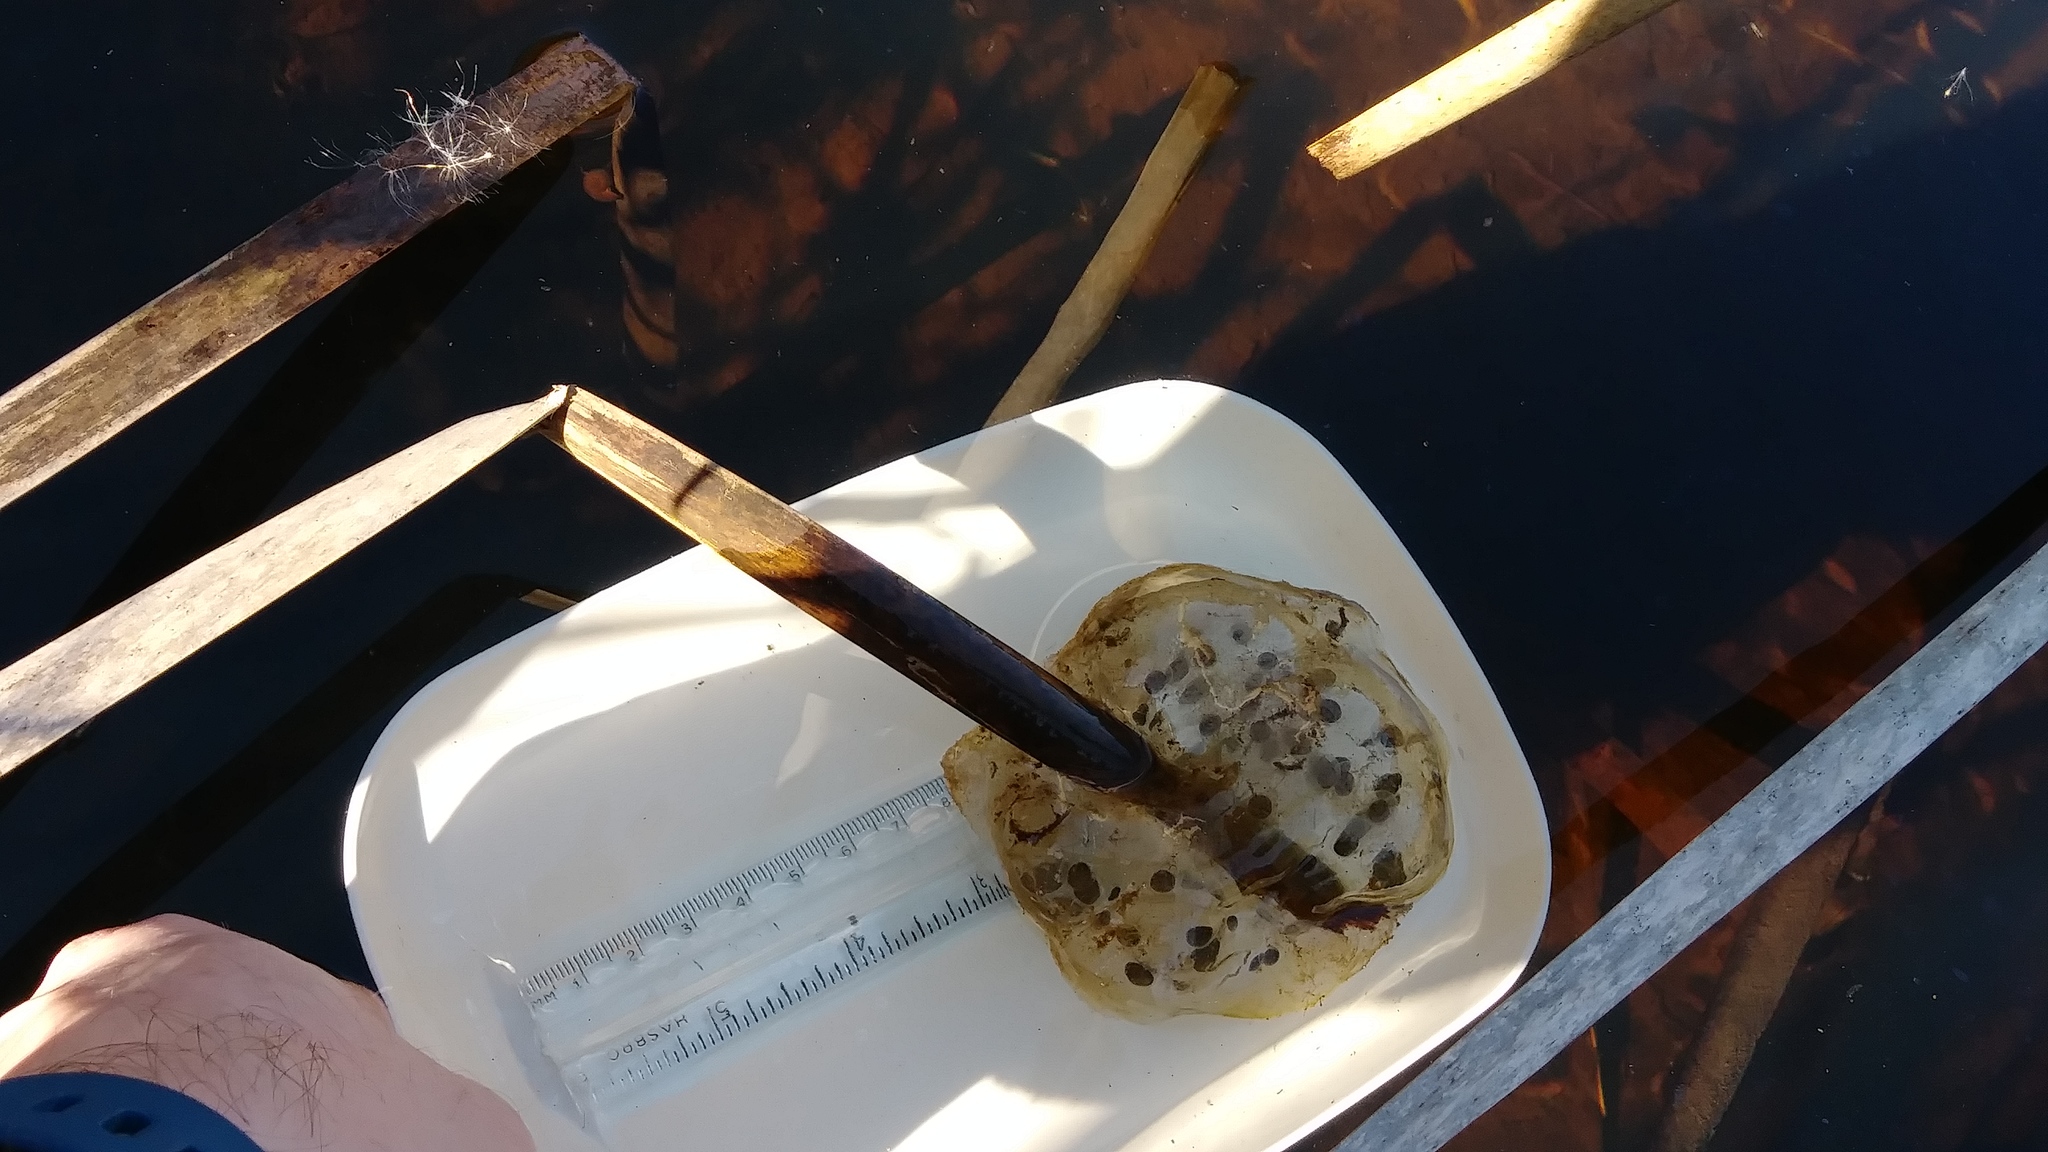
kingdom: Animalia
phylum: Chordata
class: Amphibia
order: Caudata
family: Ambystomatidae
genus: Ambystoma
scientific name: Ambystoma gracile
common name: Northwestern salamander
